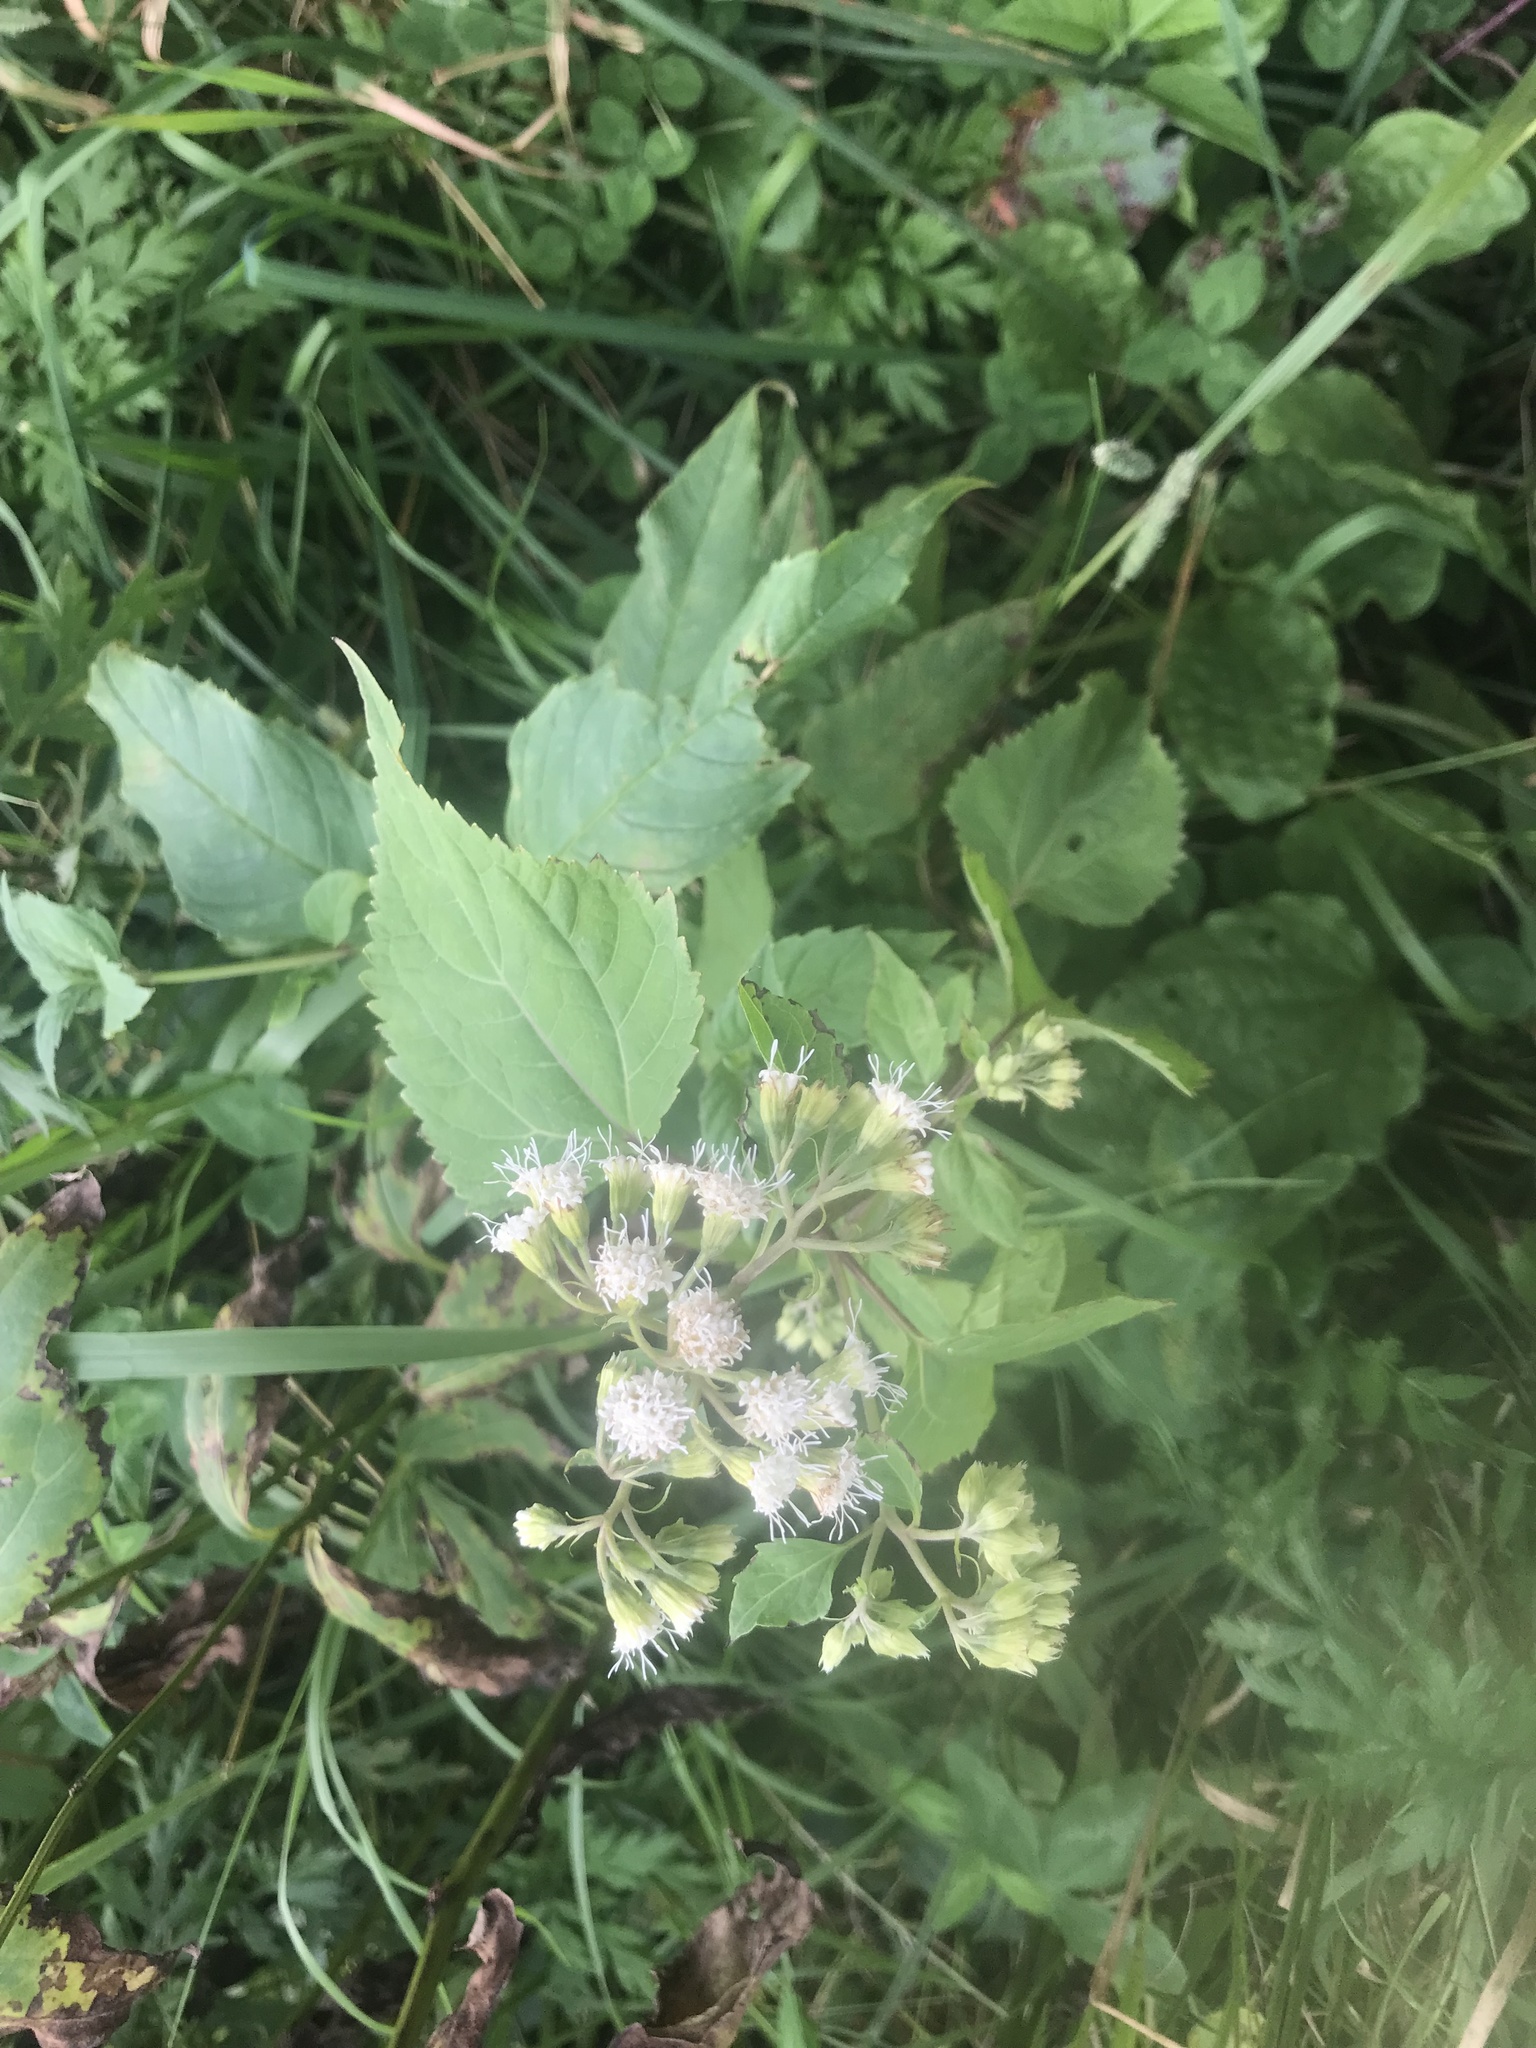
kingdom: Plantae
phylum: Tracheophyta
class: Magnoliopsida
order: Asterales
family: Asteraceae
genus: Ageratina
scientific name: Ageratina altissima
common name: White snakeroot
